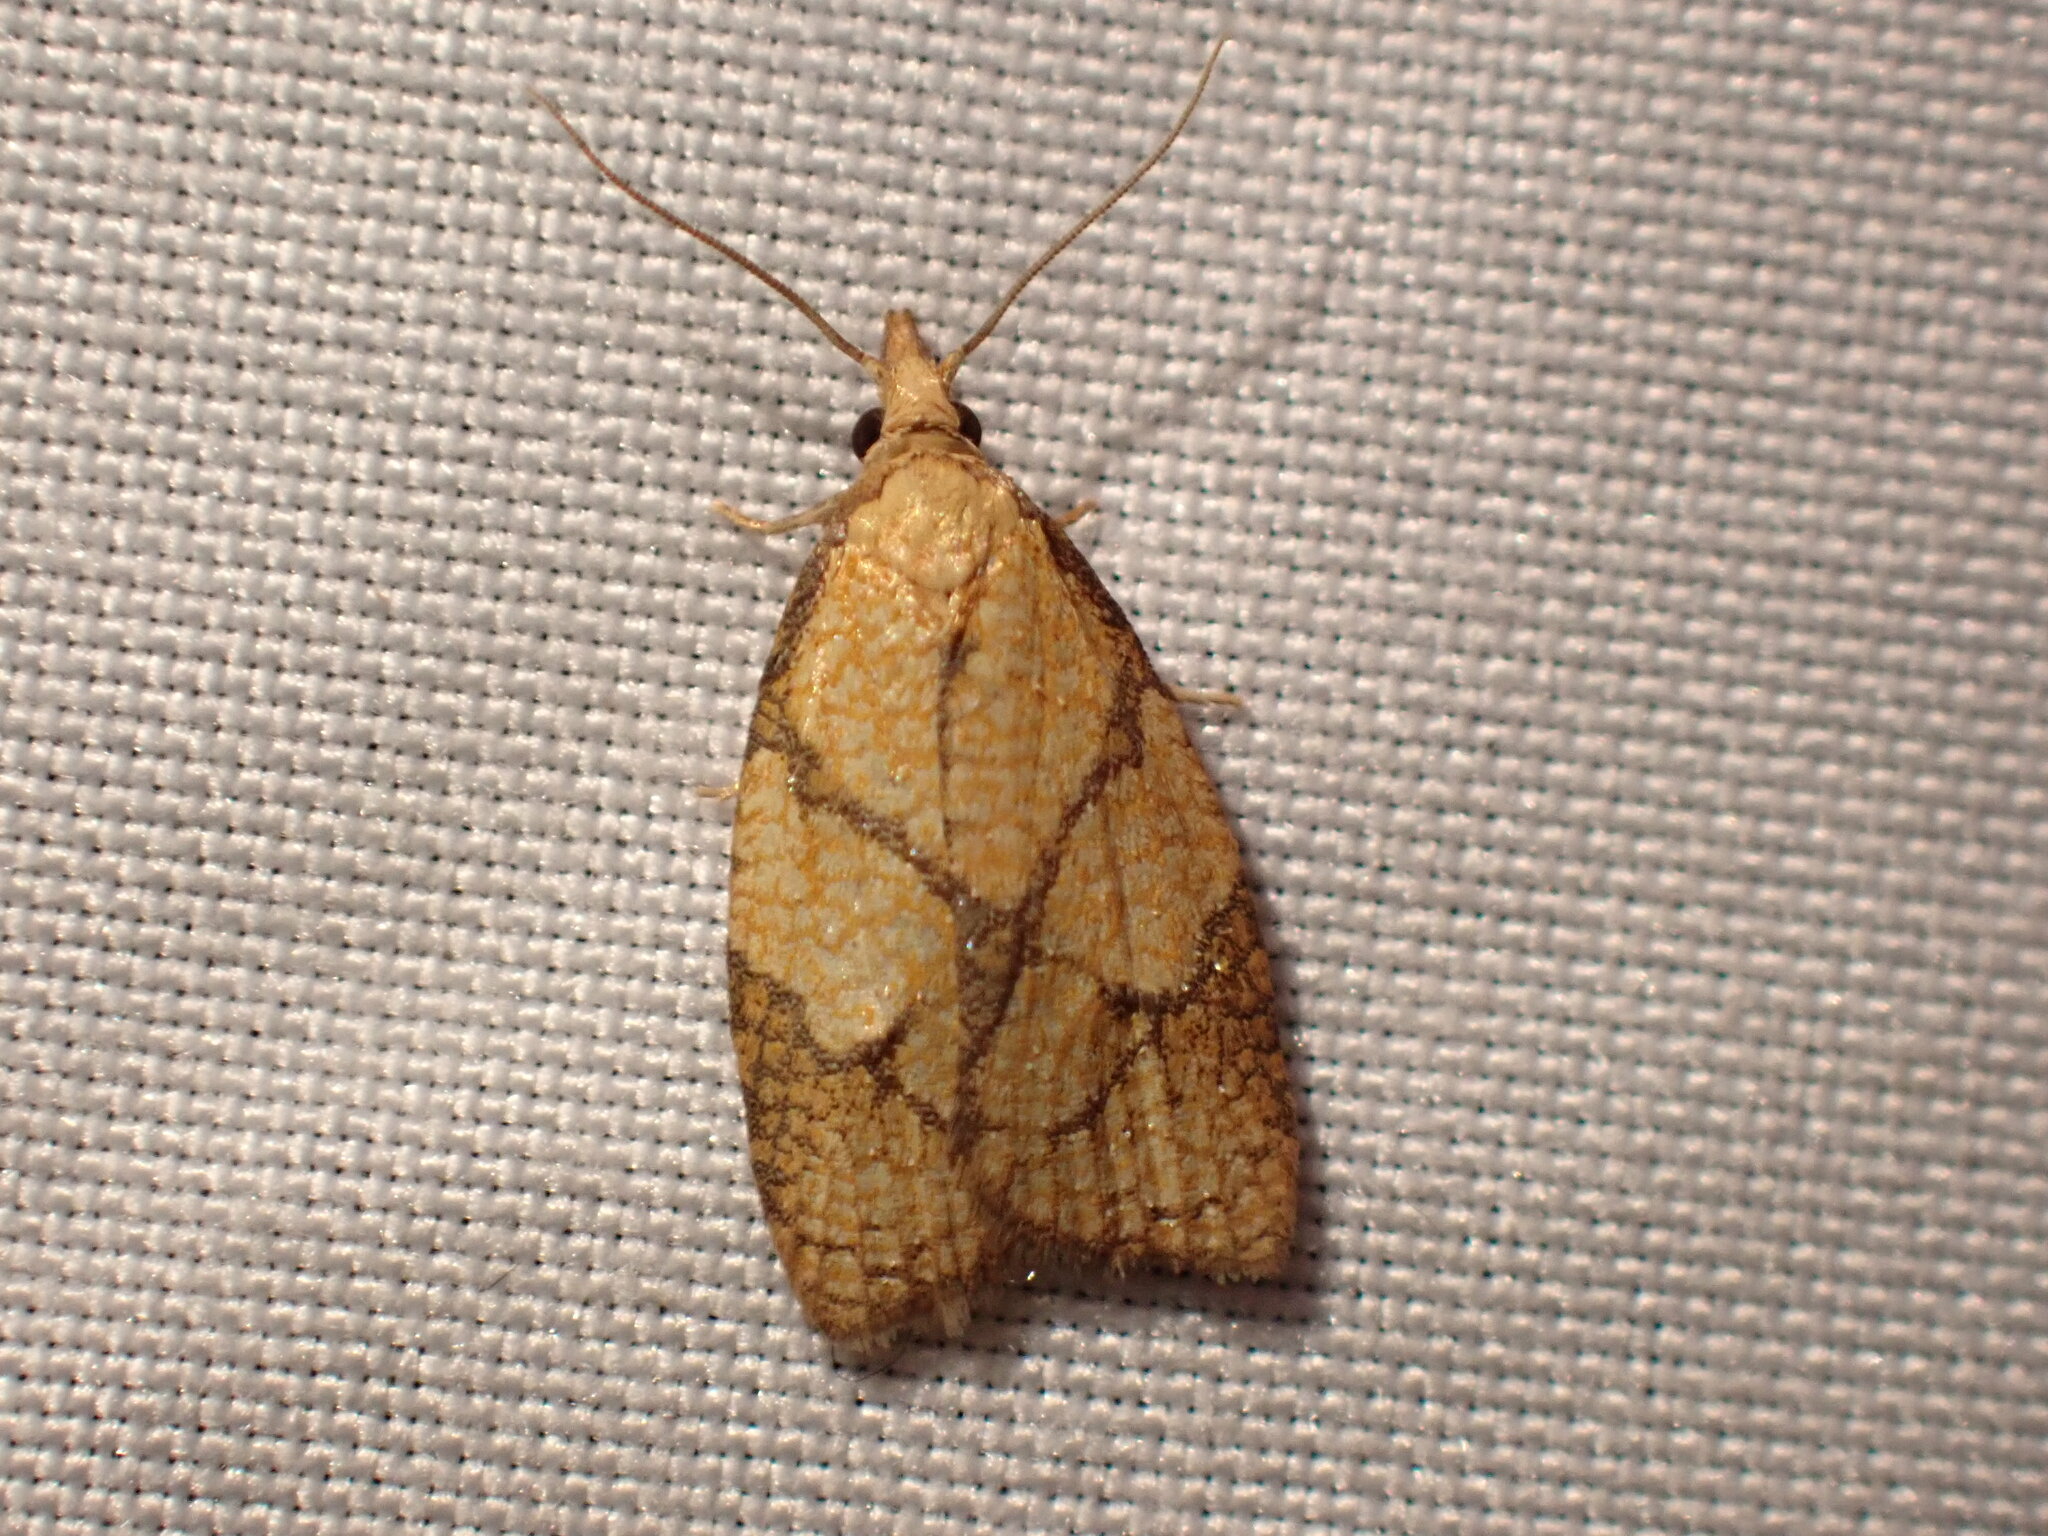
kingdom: Animalia
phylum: Arthropoda
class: Insecta
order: Lepidoptera
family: Tortricidae
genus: Cenopis
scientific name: Cenopis reticulatana
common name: Reticulated fruitworm moth
